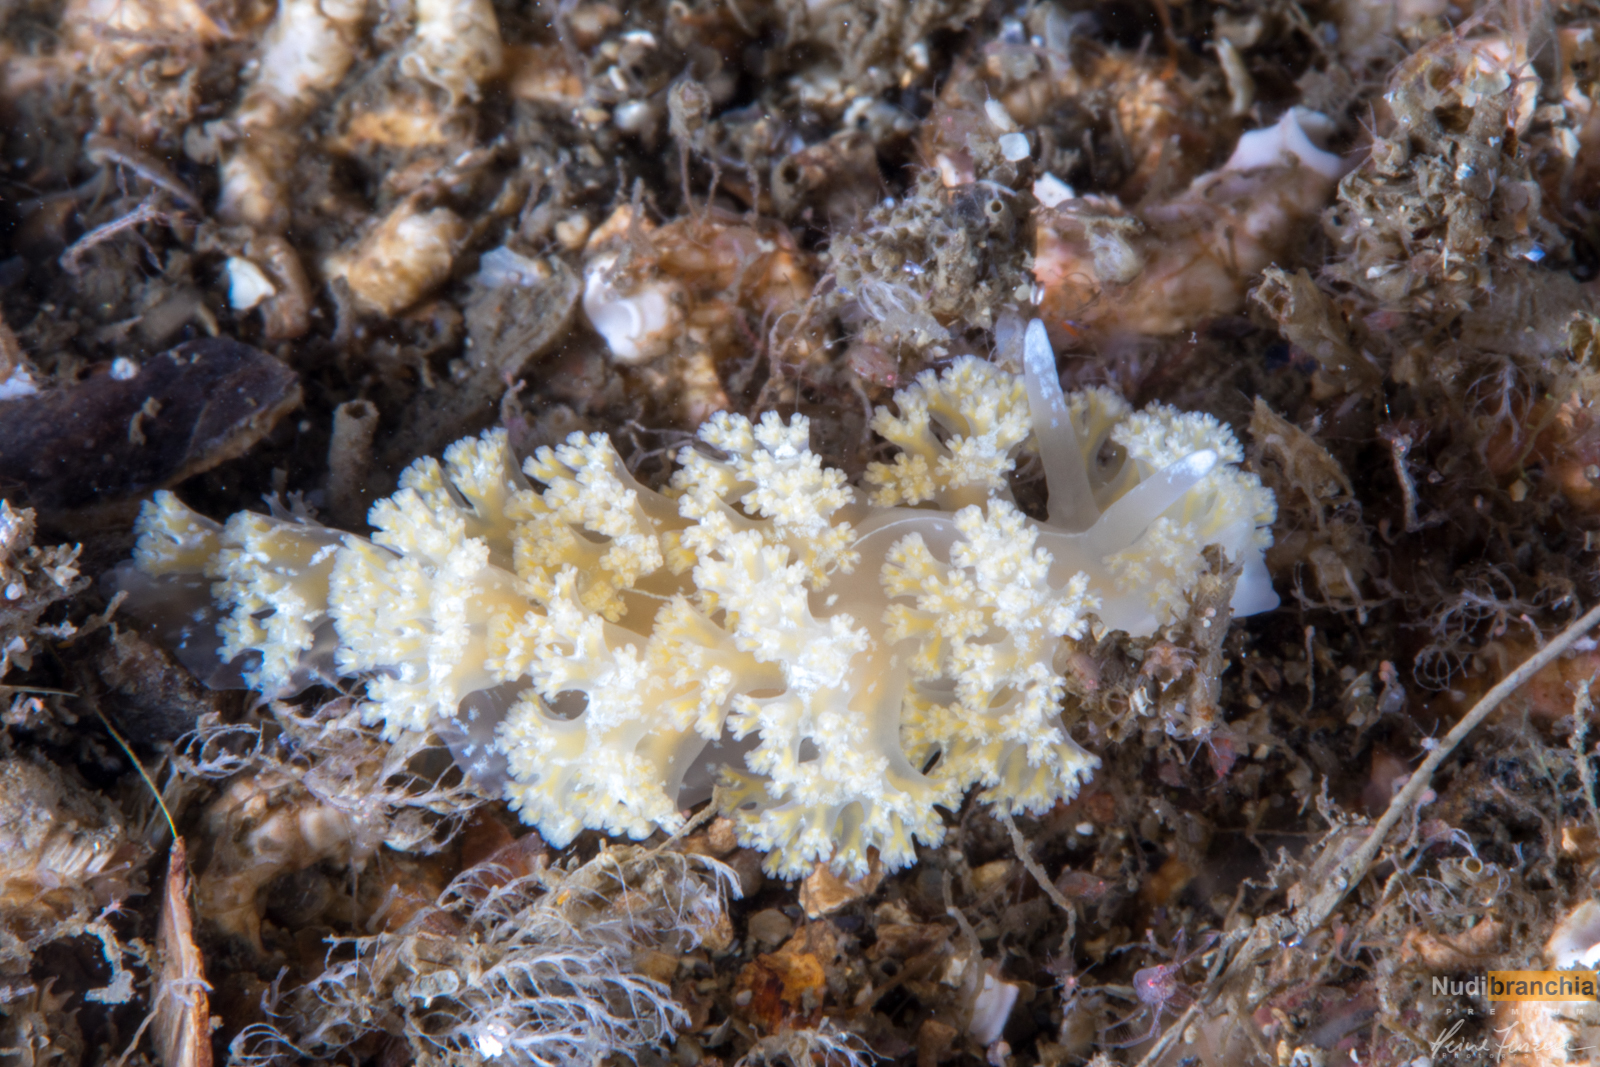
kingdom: Animalia
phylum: Mollusca
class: Gastropoda
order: Nudibranchia
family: Heroidae
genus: Hero
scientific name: Hero formosa
